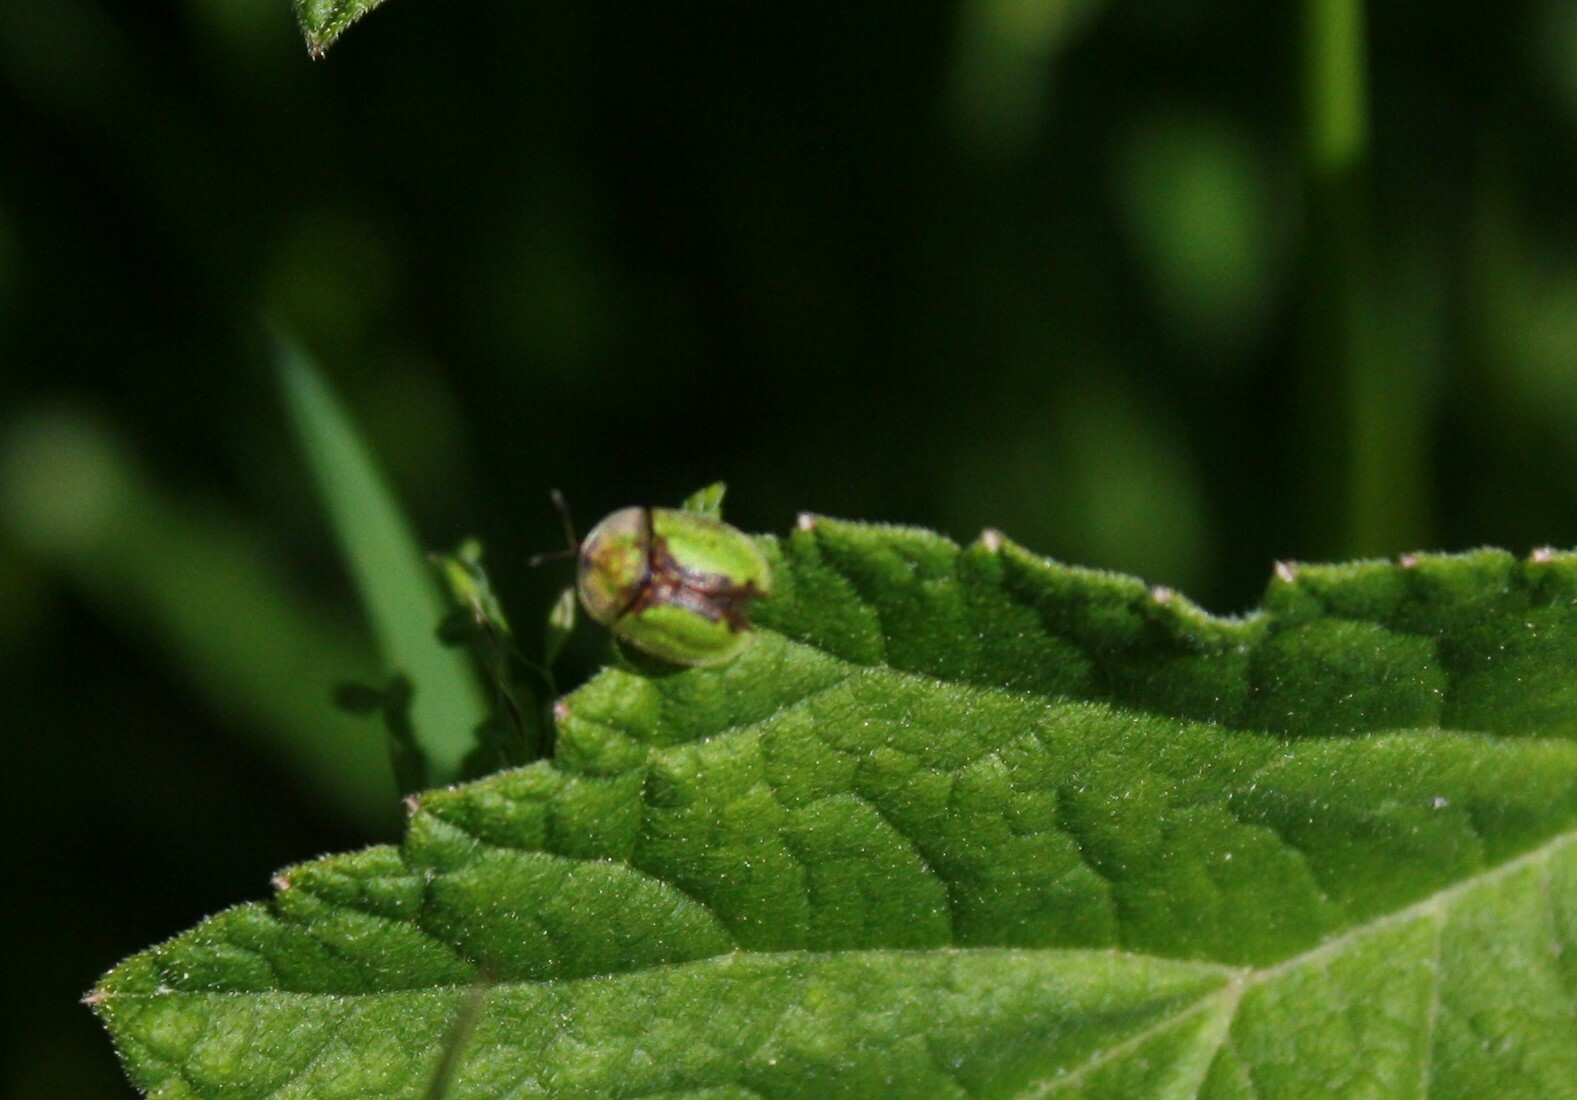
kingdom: Animalia
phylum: Arthropoda
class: Insecta
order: Coleoptera
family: Chrysomelidae
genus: Cassida
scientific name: Cassida vibex
